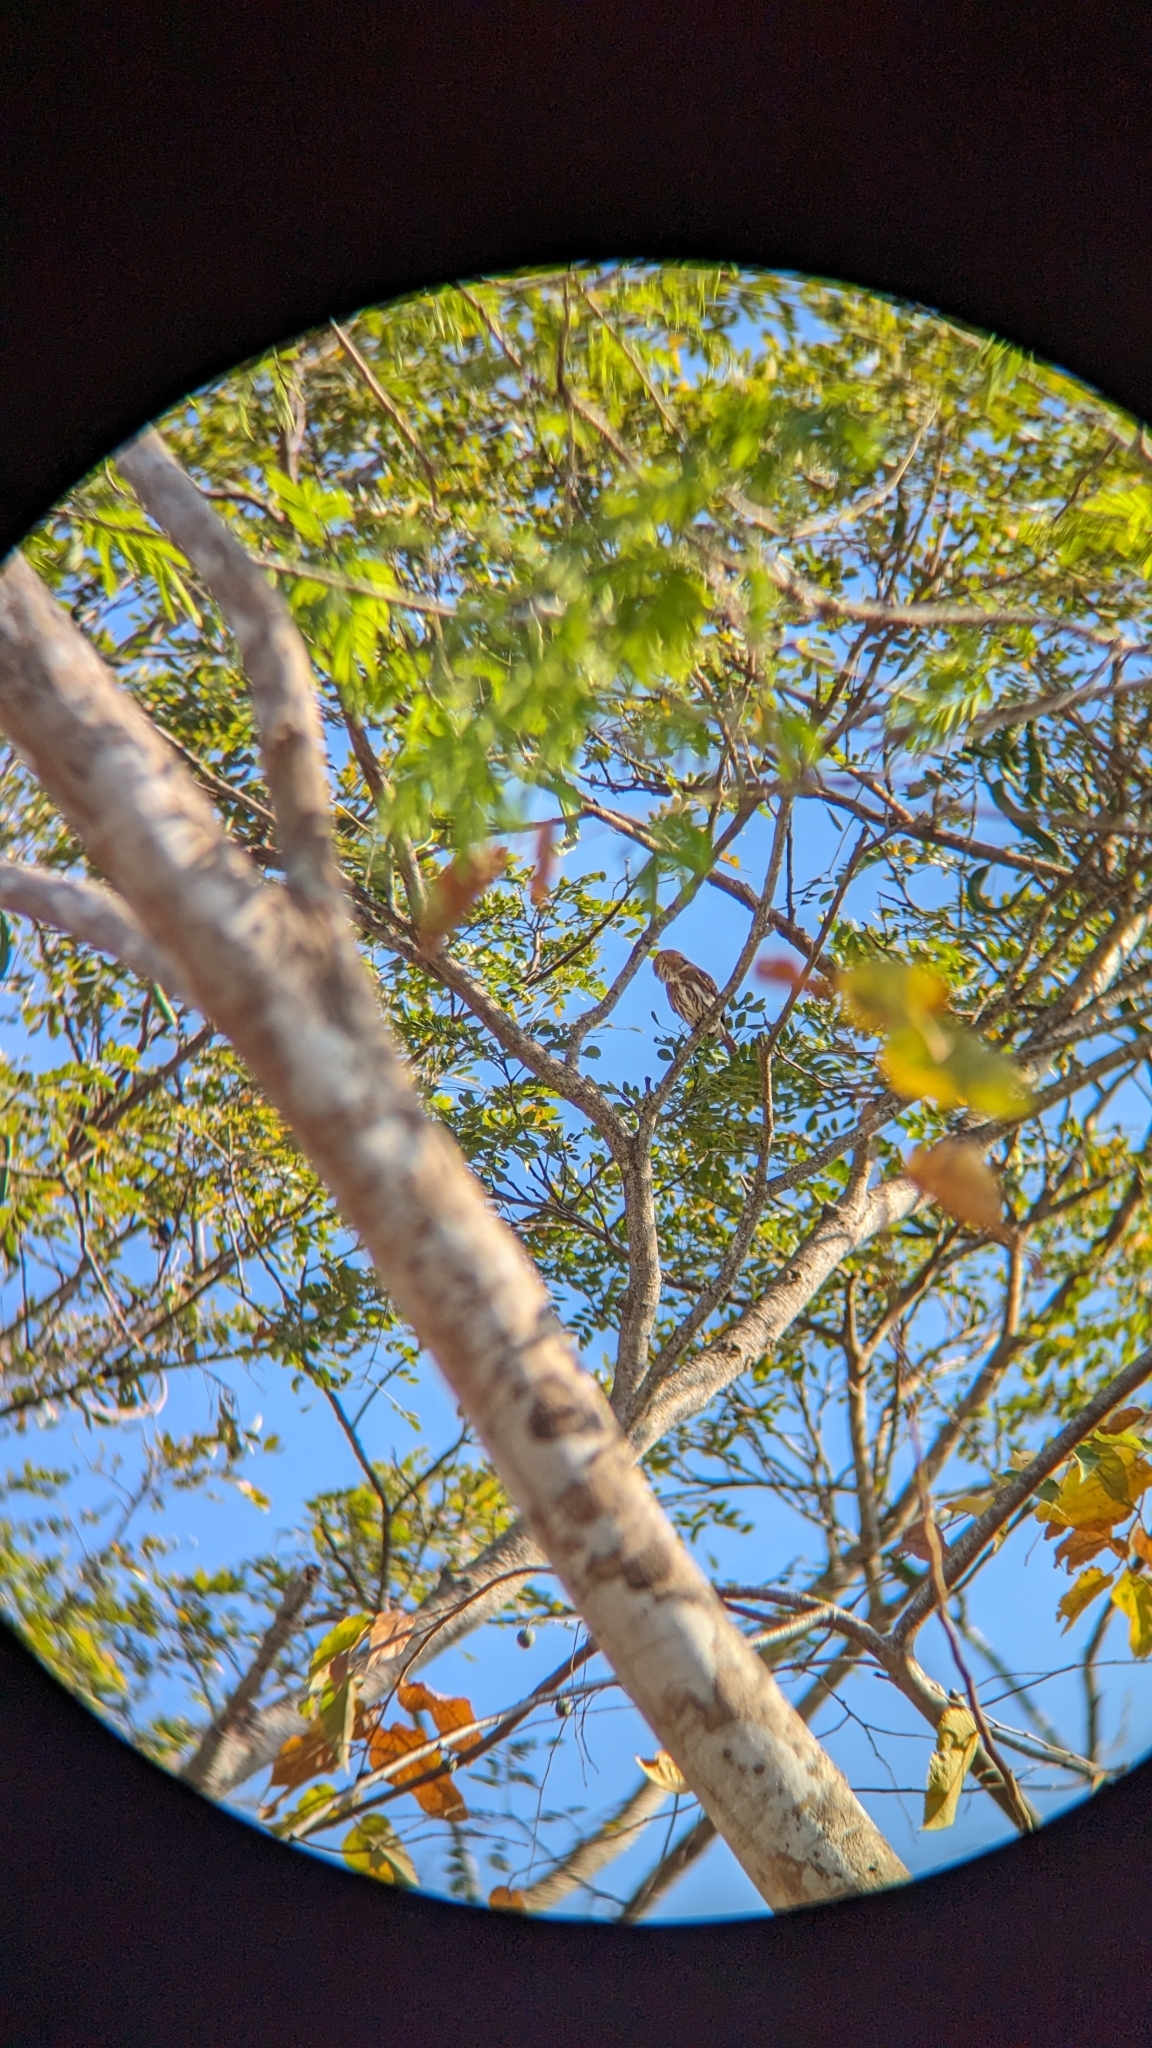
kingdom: Animalia
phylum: Chordata
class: Aves
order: Strigiformes
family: Strigidae
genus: Glaucidium
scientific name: Glaucidium brasilianum
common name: Ferruginous pygmy-owl
